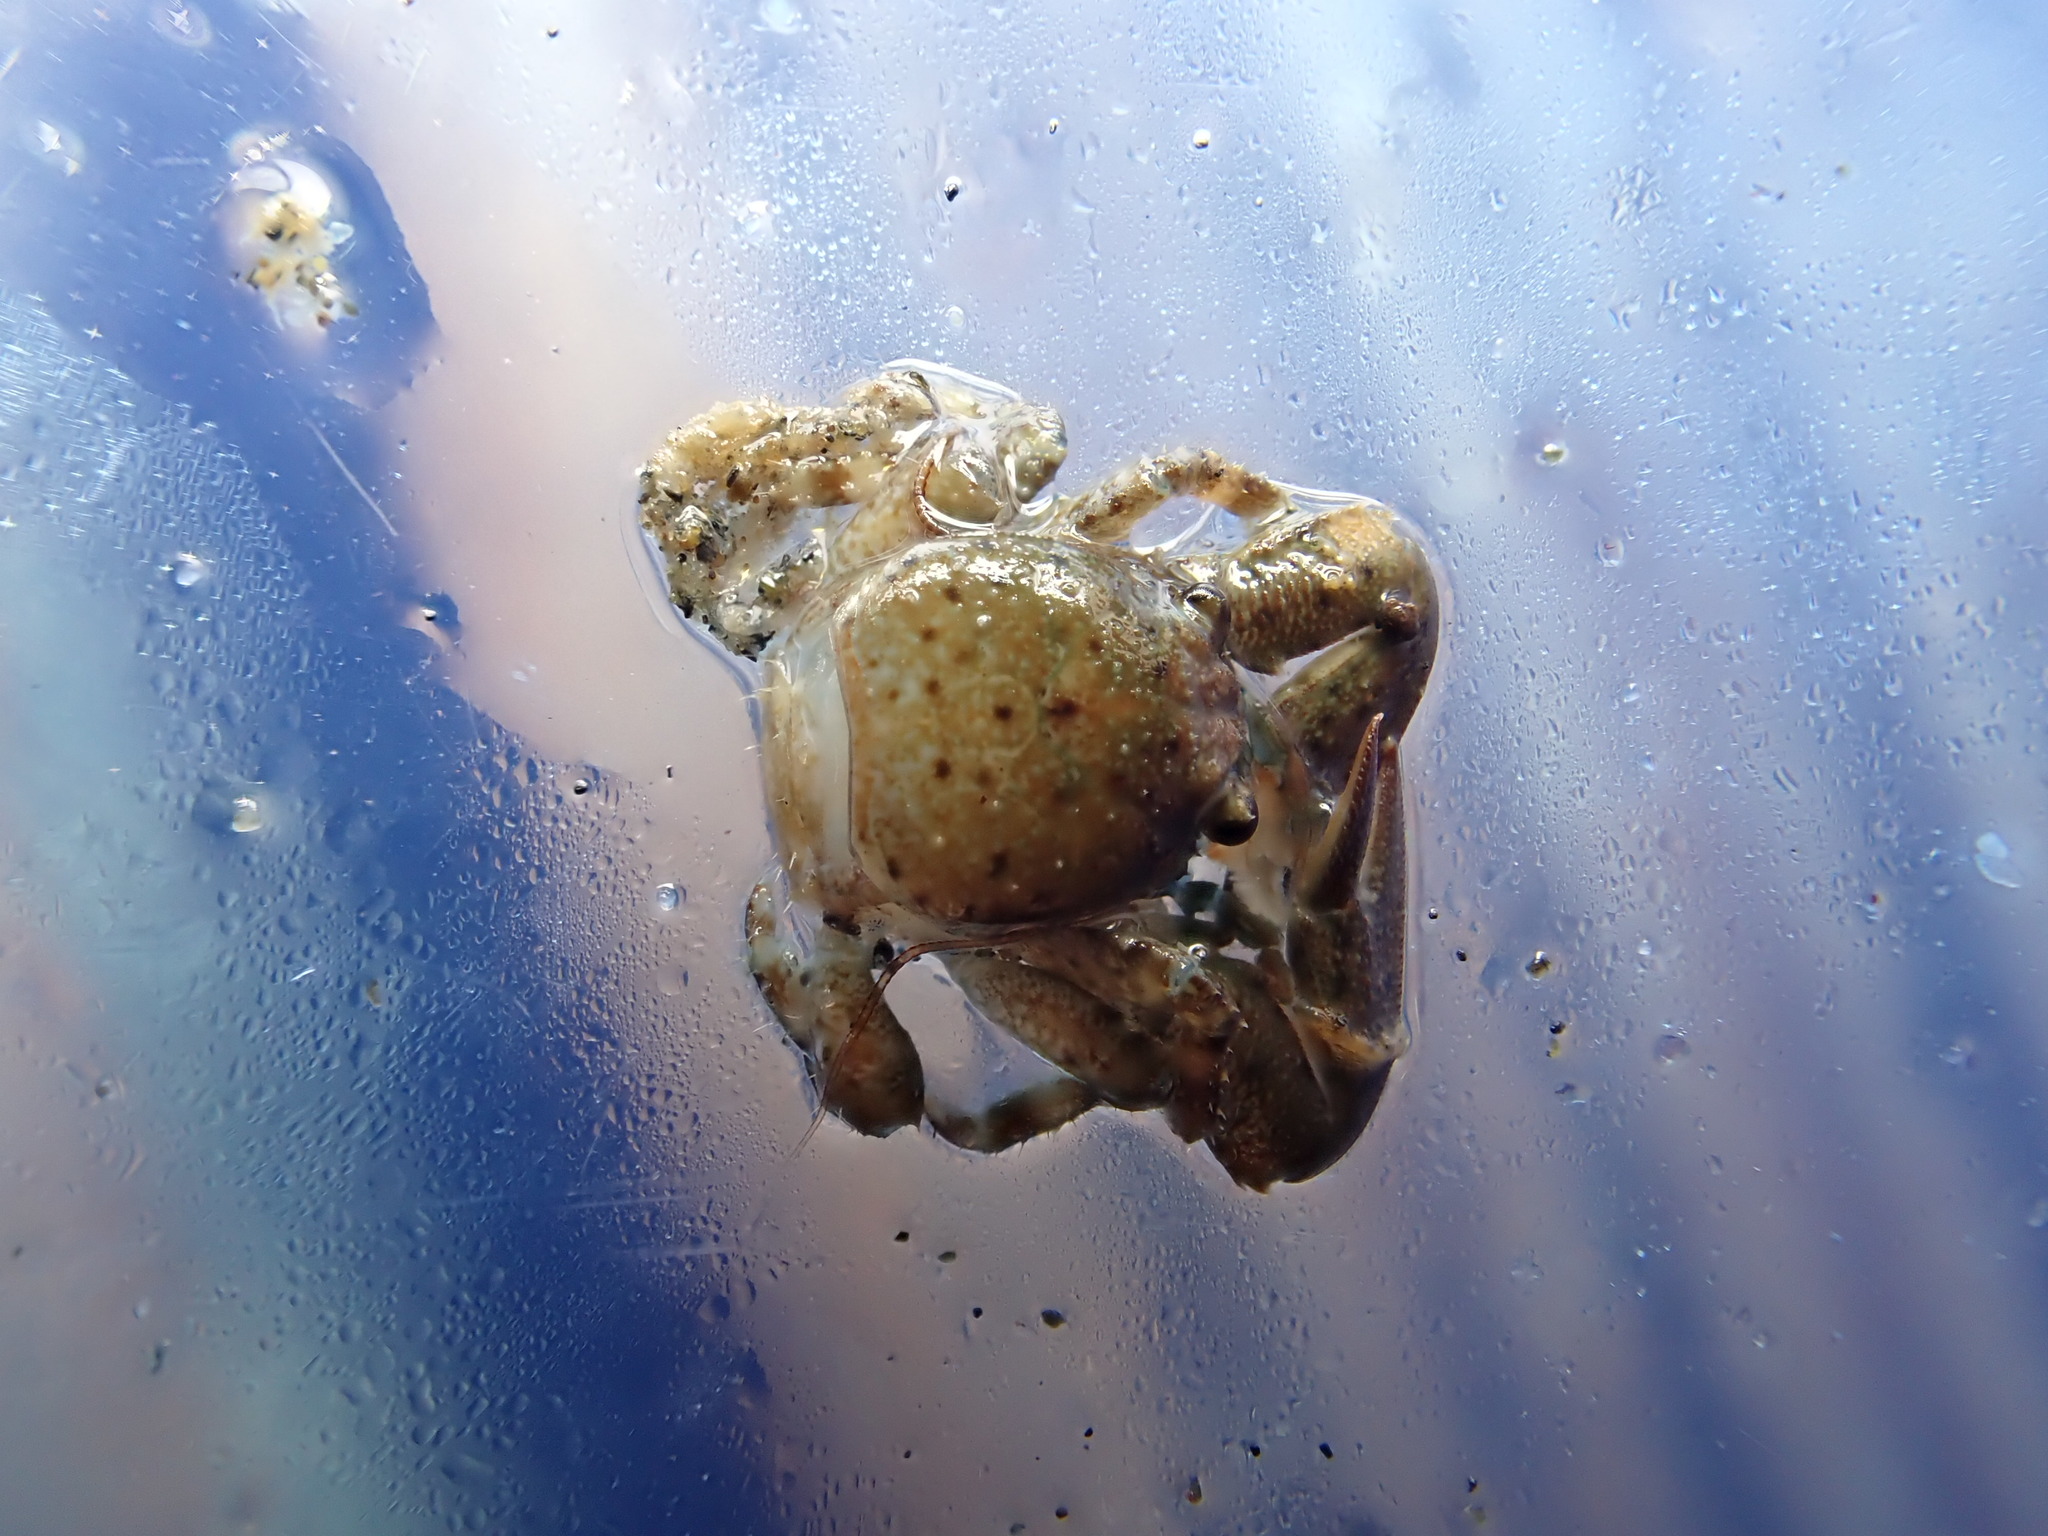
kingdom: Animalia
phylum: Arthropoda
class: Malacostraca
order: Decapoda
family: Porcellanidae
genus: Petrolisthes
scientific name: Petrolisthes elongatus
